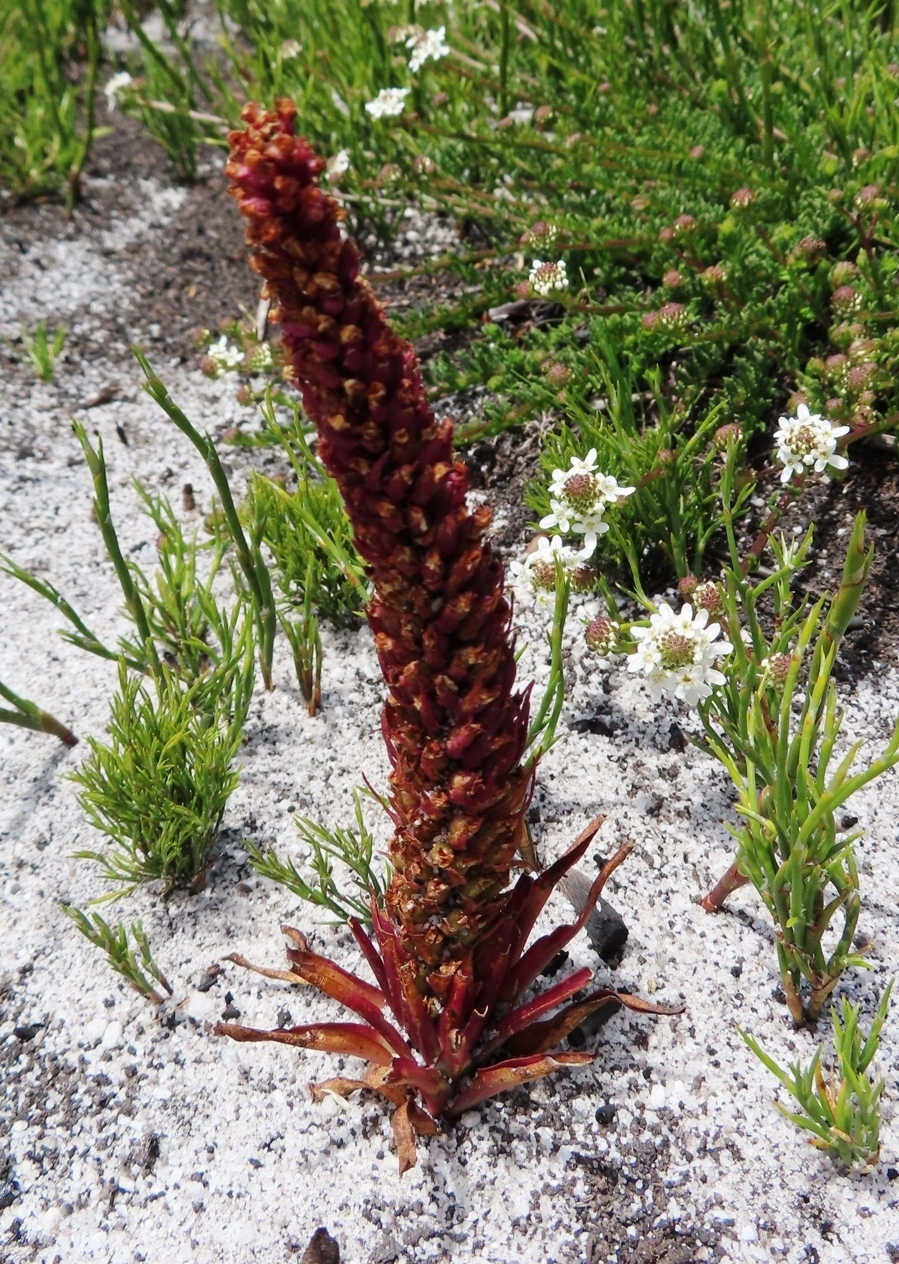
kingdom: Plantae
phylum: Tracheophyta
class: Liliopsida
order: Asparagales
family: Orchidaceae
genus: Disa
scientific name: Disa conferta
